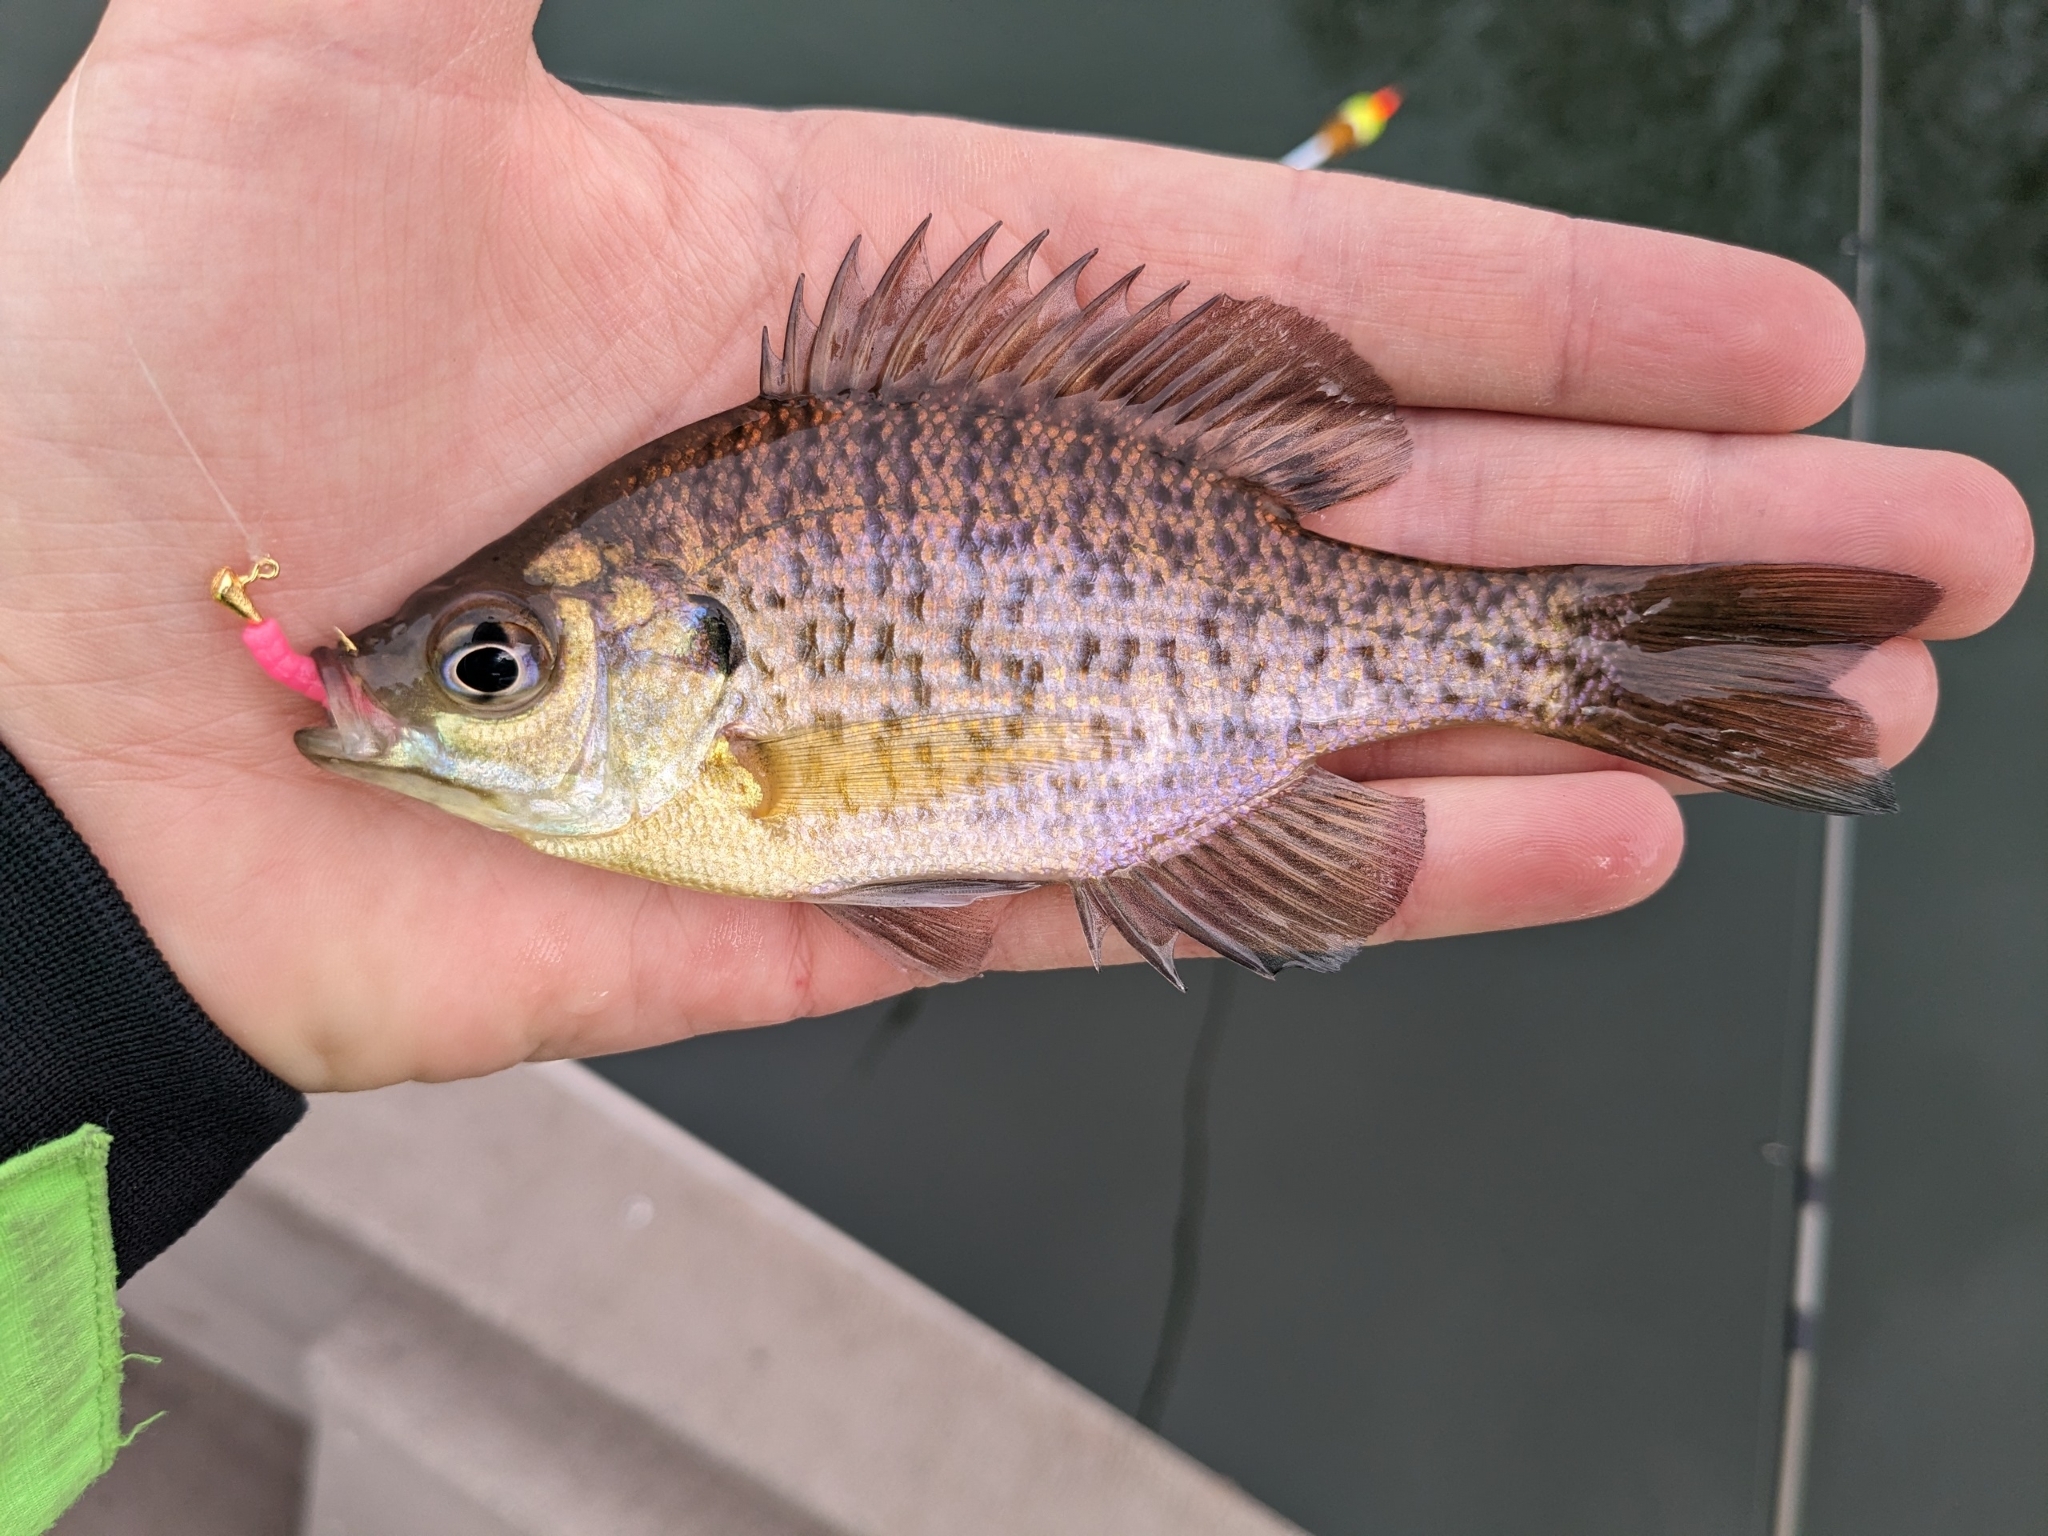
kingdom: Animalia
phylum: Chordata
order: Perciformes
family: Centrarchidae
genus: Lepomis
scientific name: Lepomis macrochirus
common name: Bluegill
